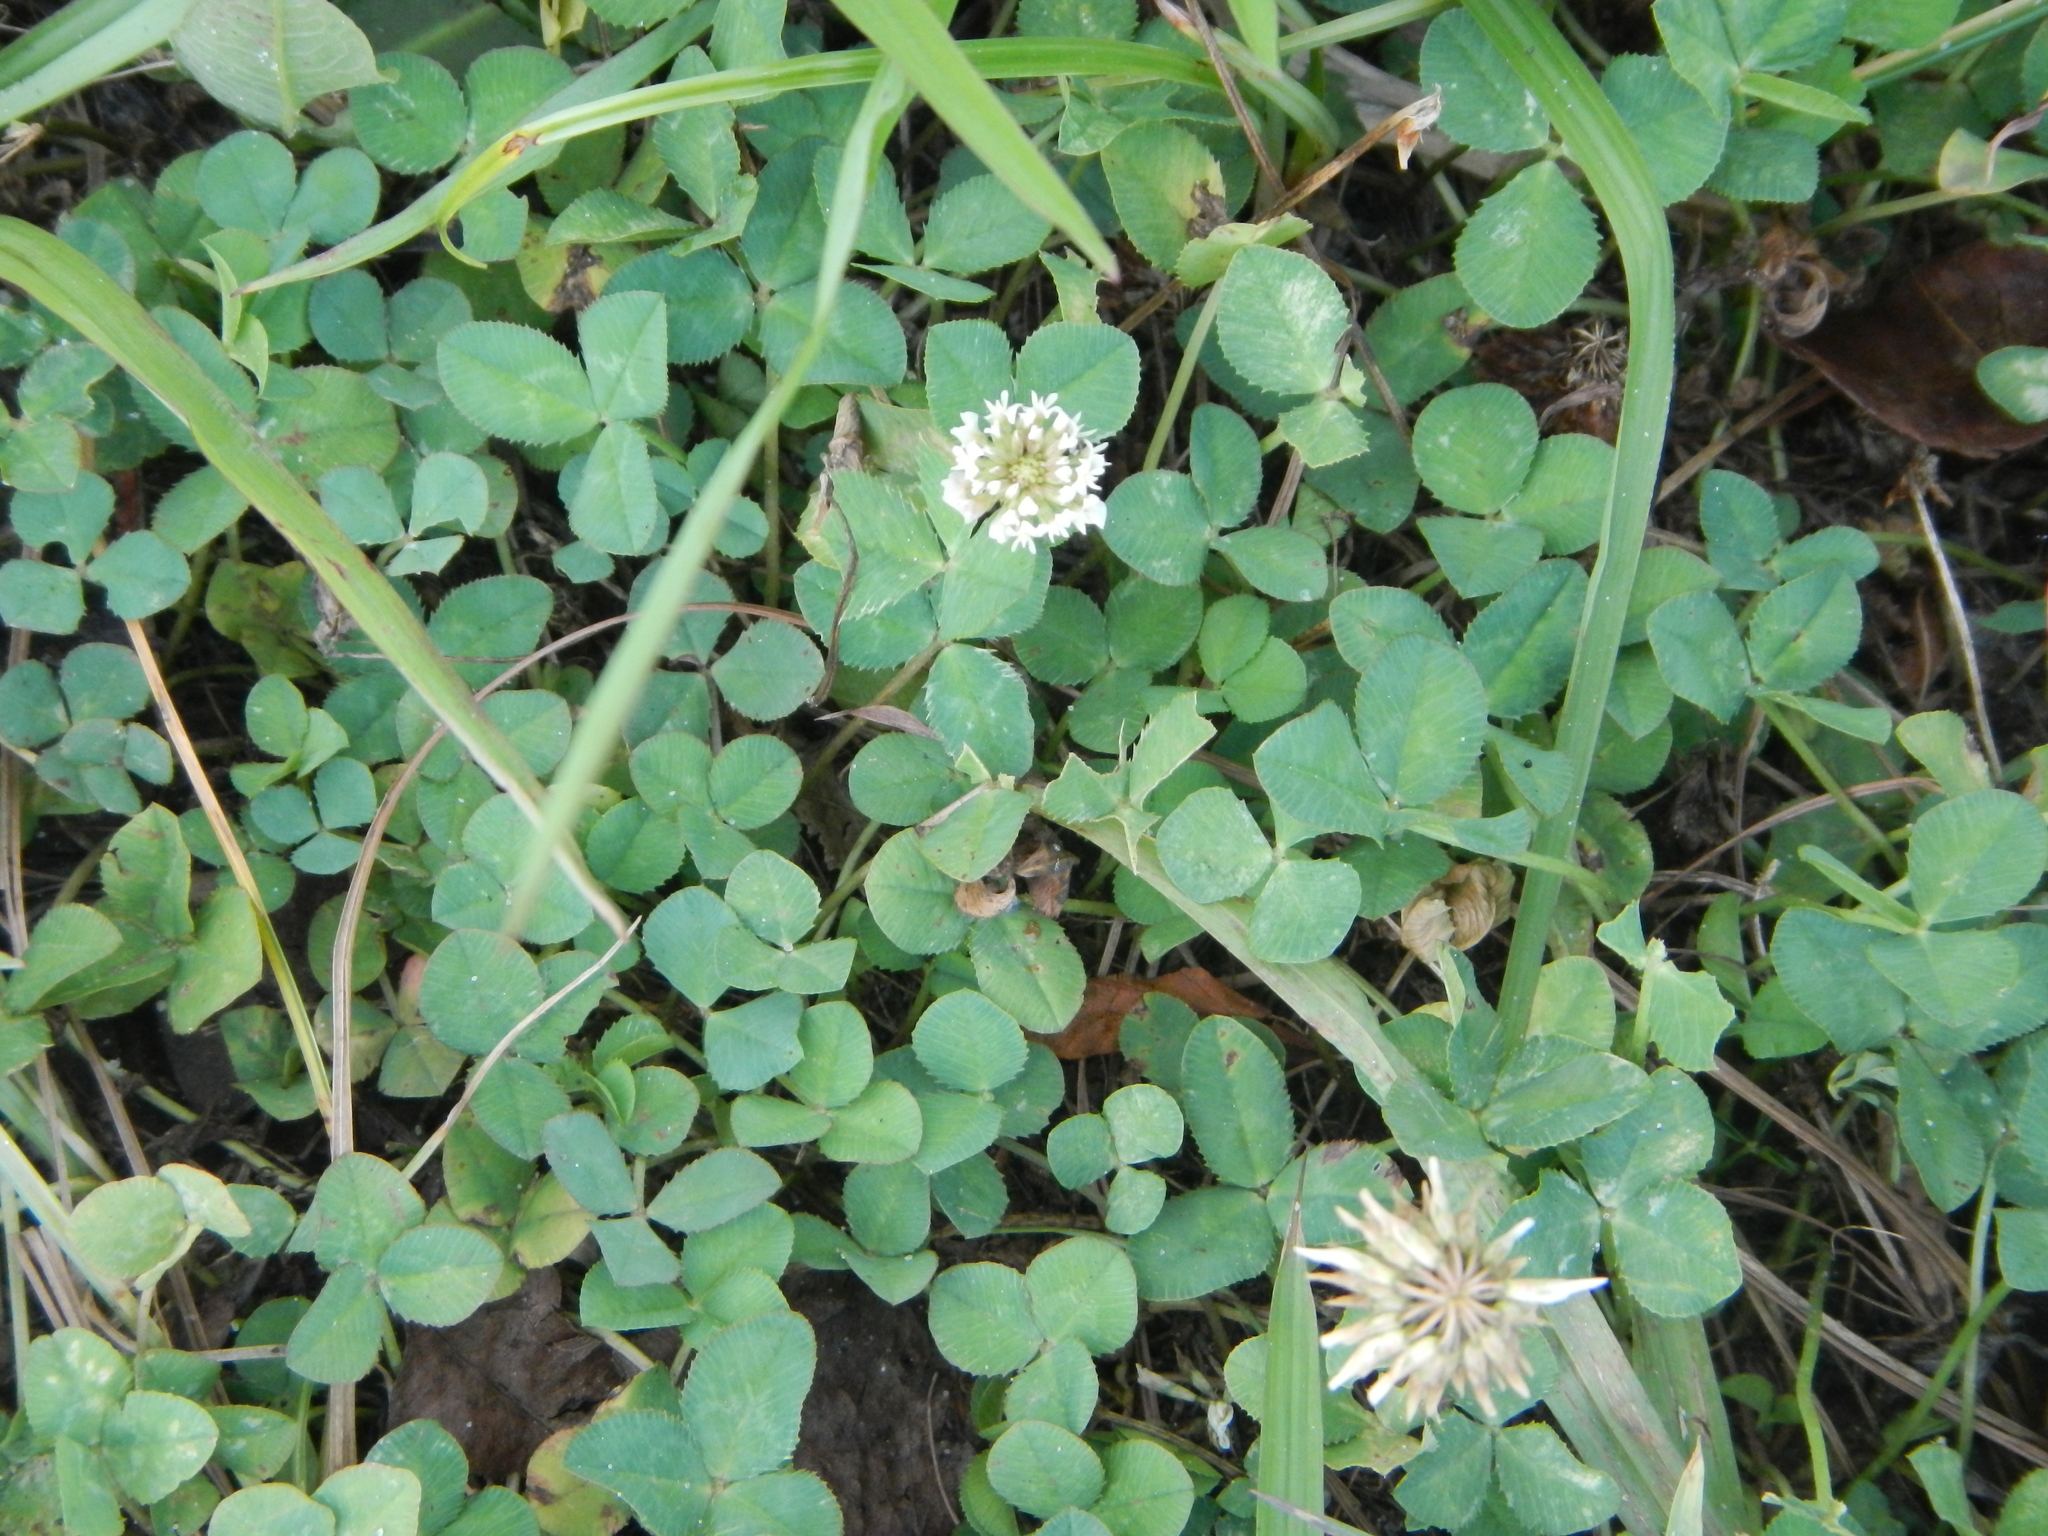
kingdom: Plantae
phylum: Tracheophyta
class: Magnoliopsida
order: Fabales
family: Fabaceae
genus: Trifolium
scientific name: Trifolium repens
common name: White clover
